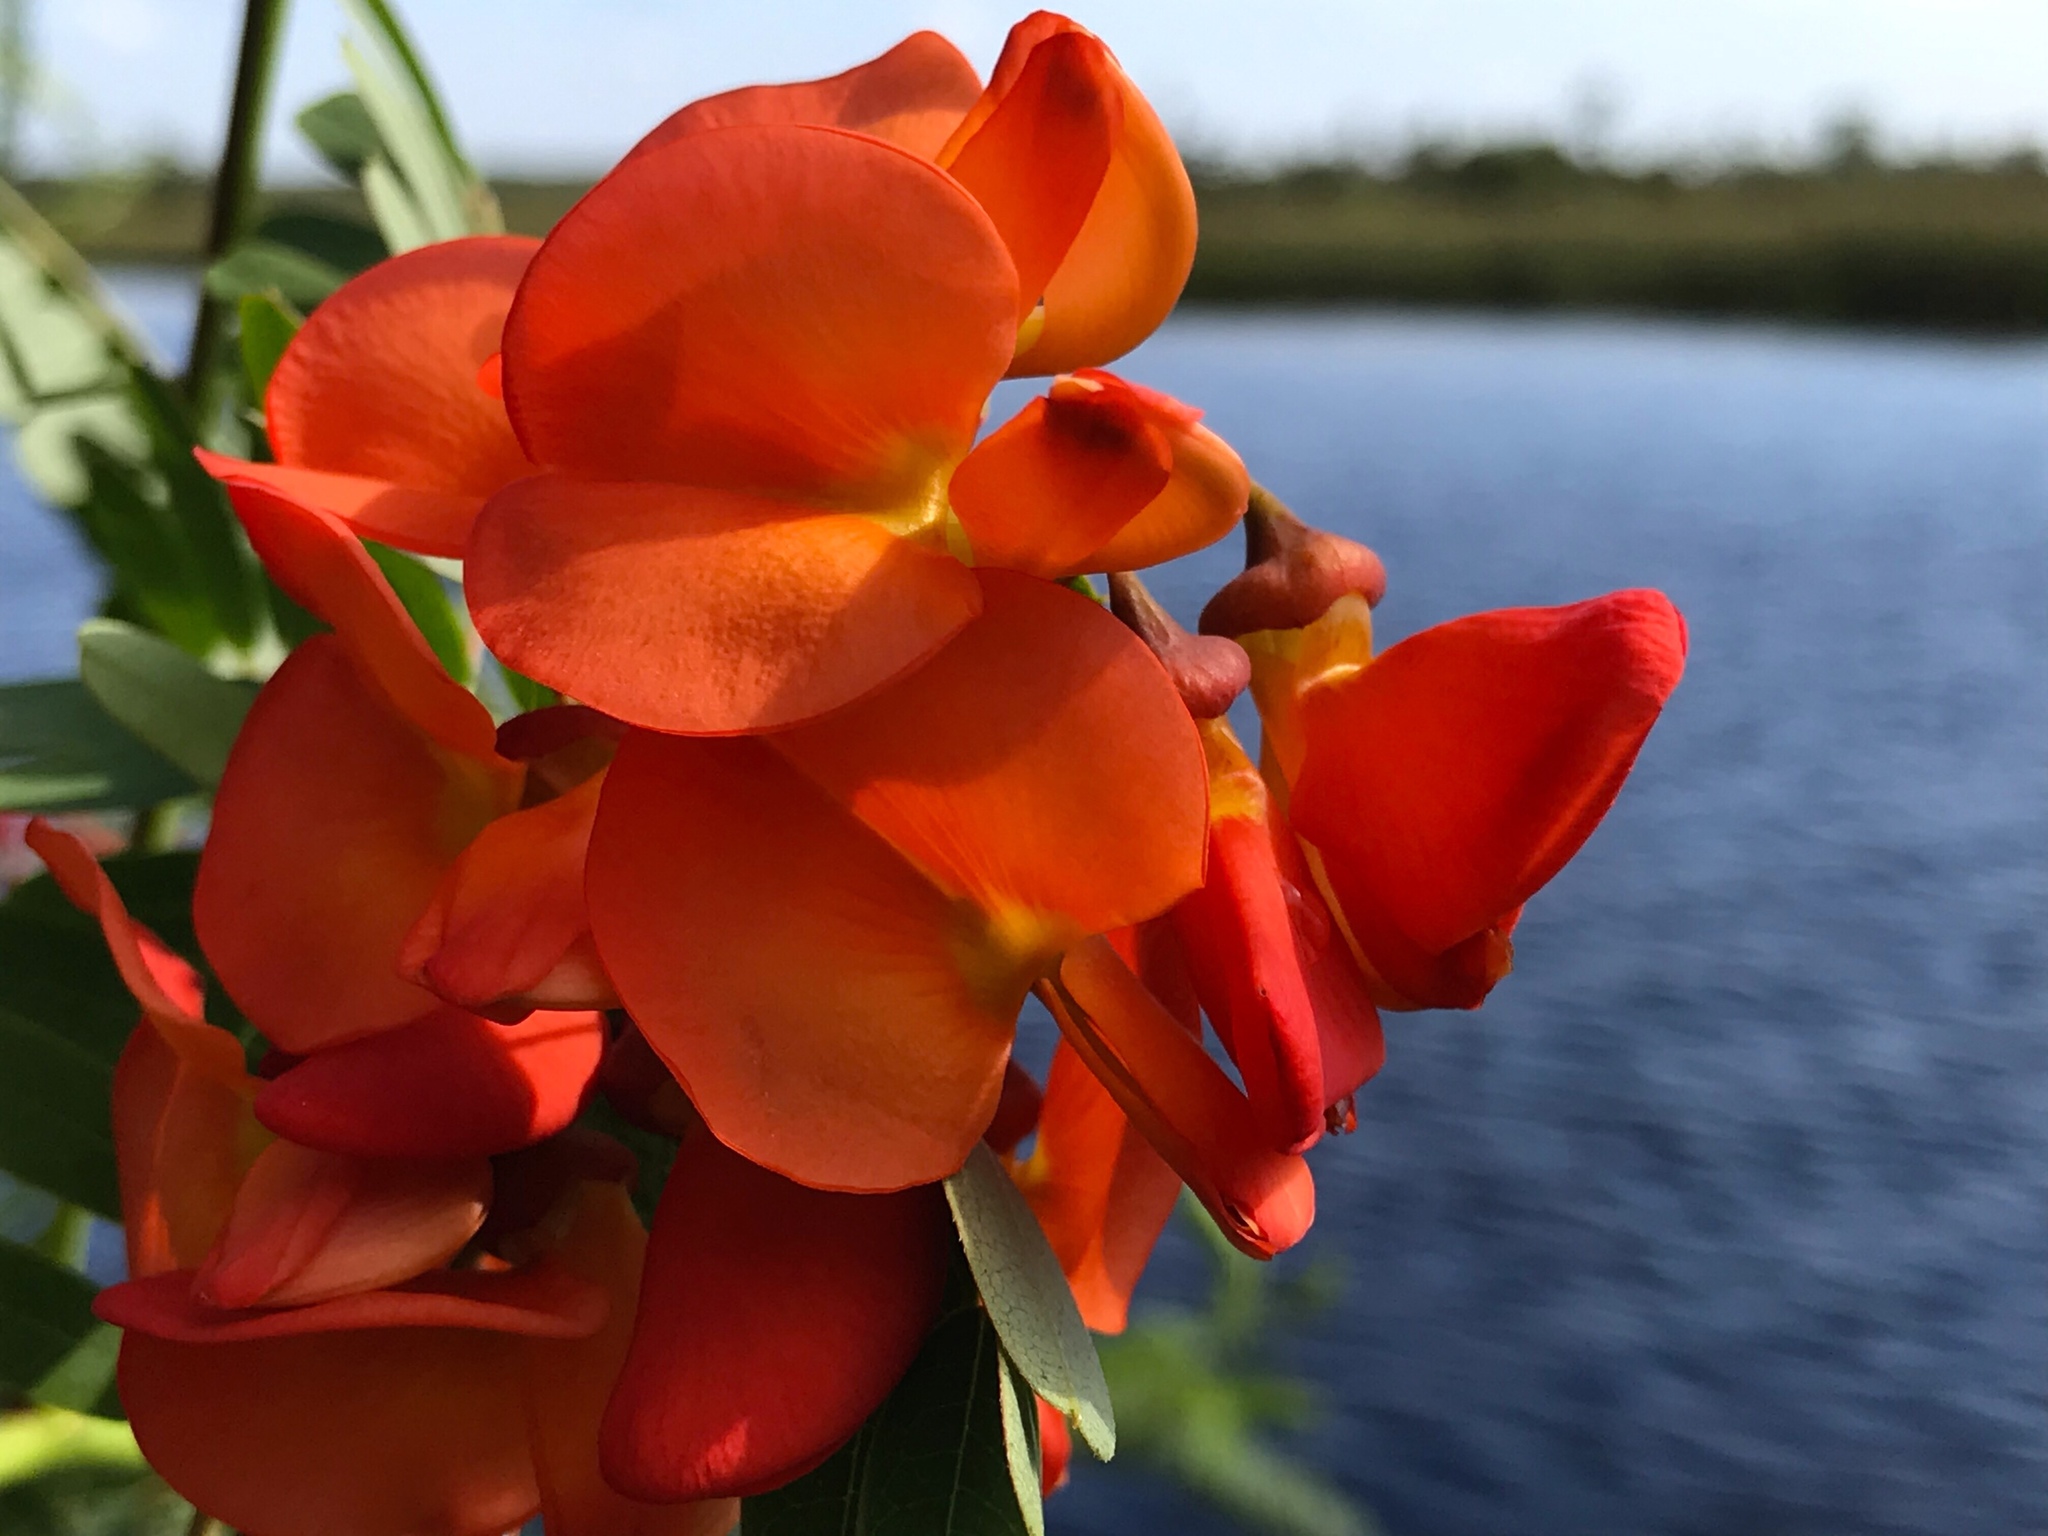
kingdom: Plantae
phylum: Tracheophyta
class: Magnoliopsida
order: Fabales
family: Fabaceae
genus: Sesbania
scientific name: Sesbania punicea
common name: Rattlebox
